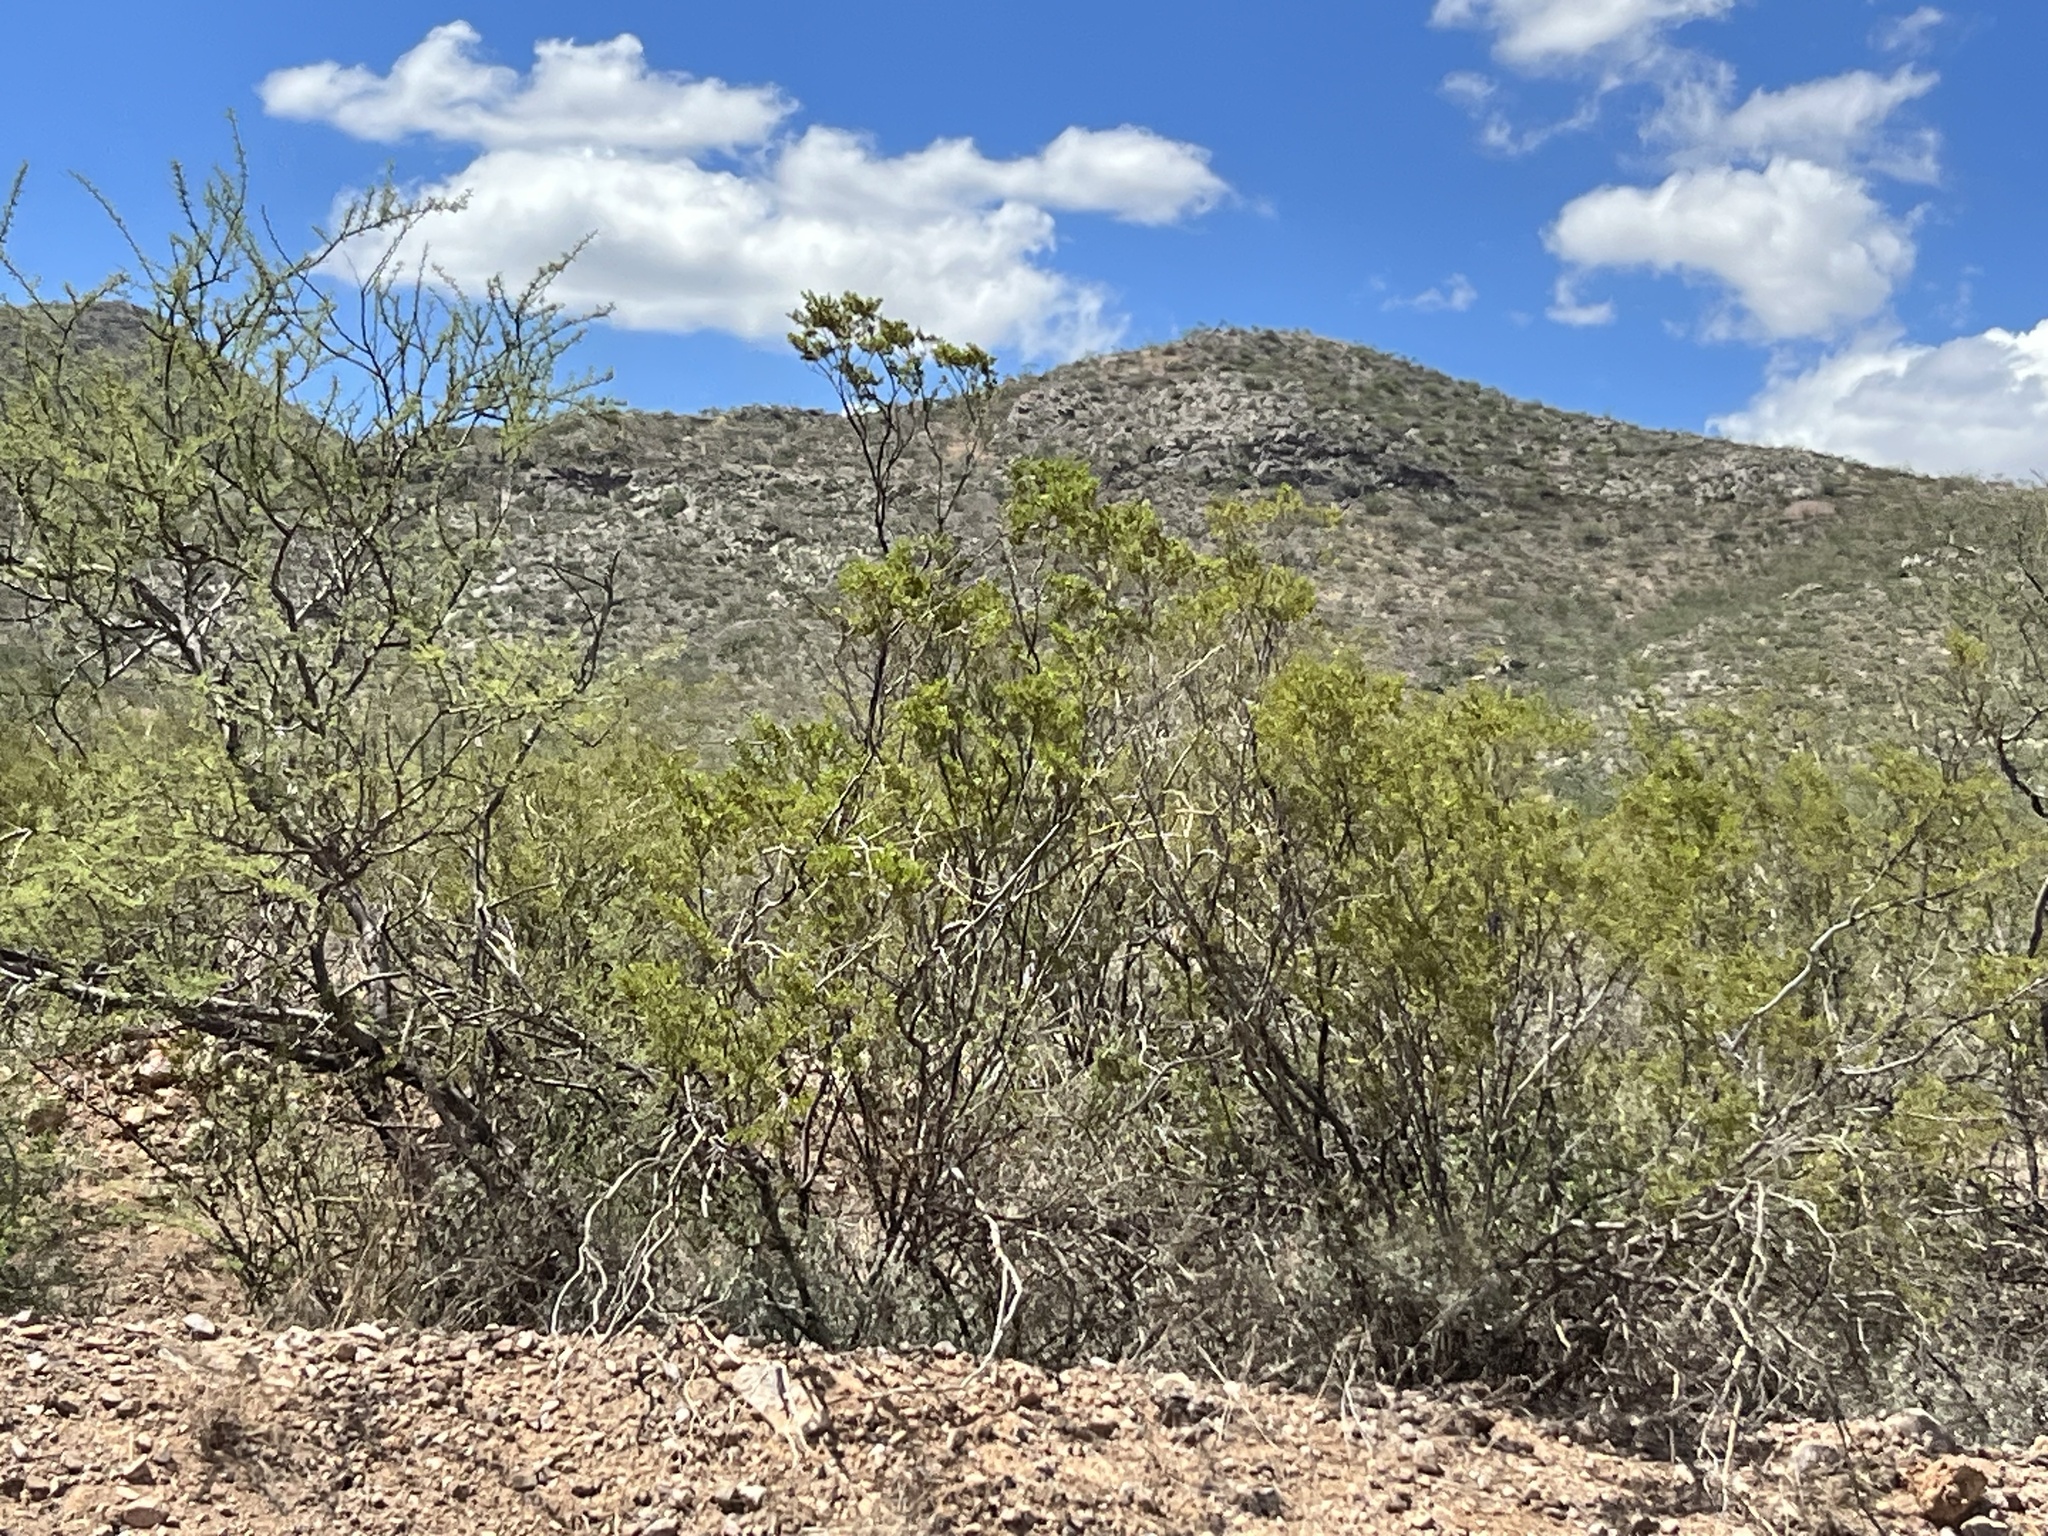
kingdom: Plantae
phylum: Tracheophyta
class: Magnoliopsida
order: Zygophyllales
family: Zygophyllaceae
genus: Larrea
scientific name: Larrea tridentata
